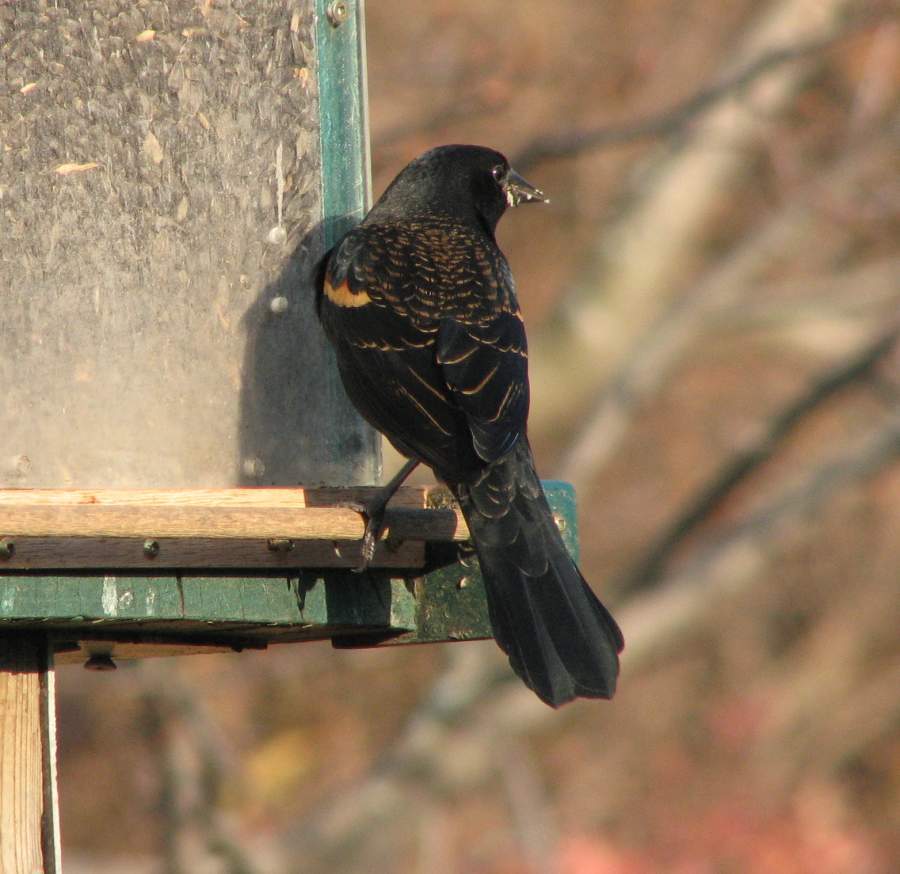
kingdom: Animalia
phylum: Chordata
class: Aves
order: Passeriformes
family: Icteridae
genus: Agelaius
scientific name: Agelaius phoeniceus
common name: Red-winged blackbird
